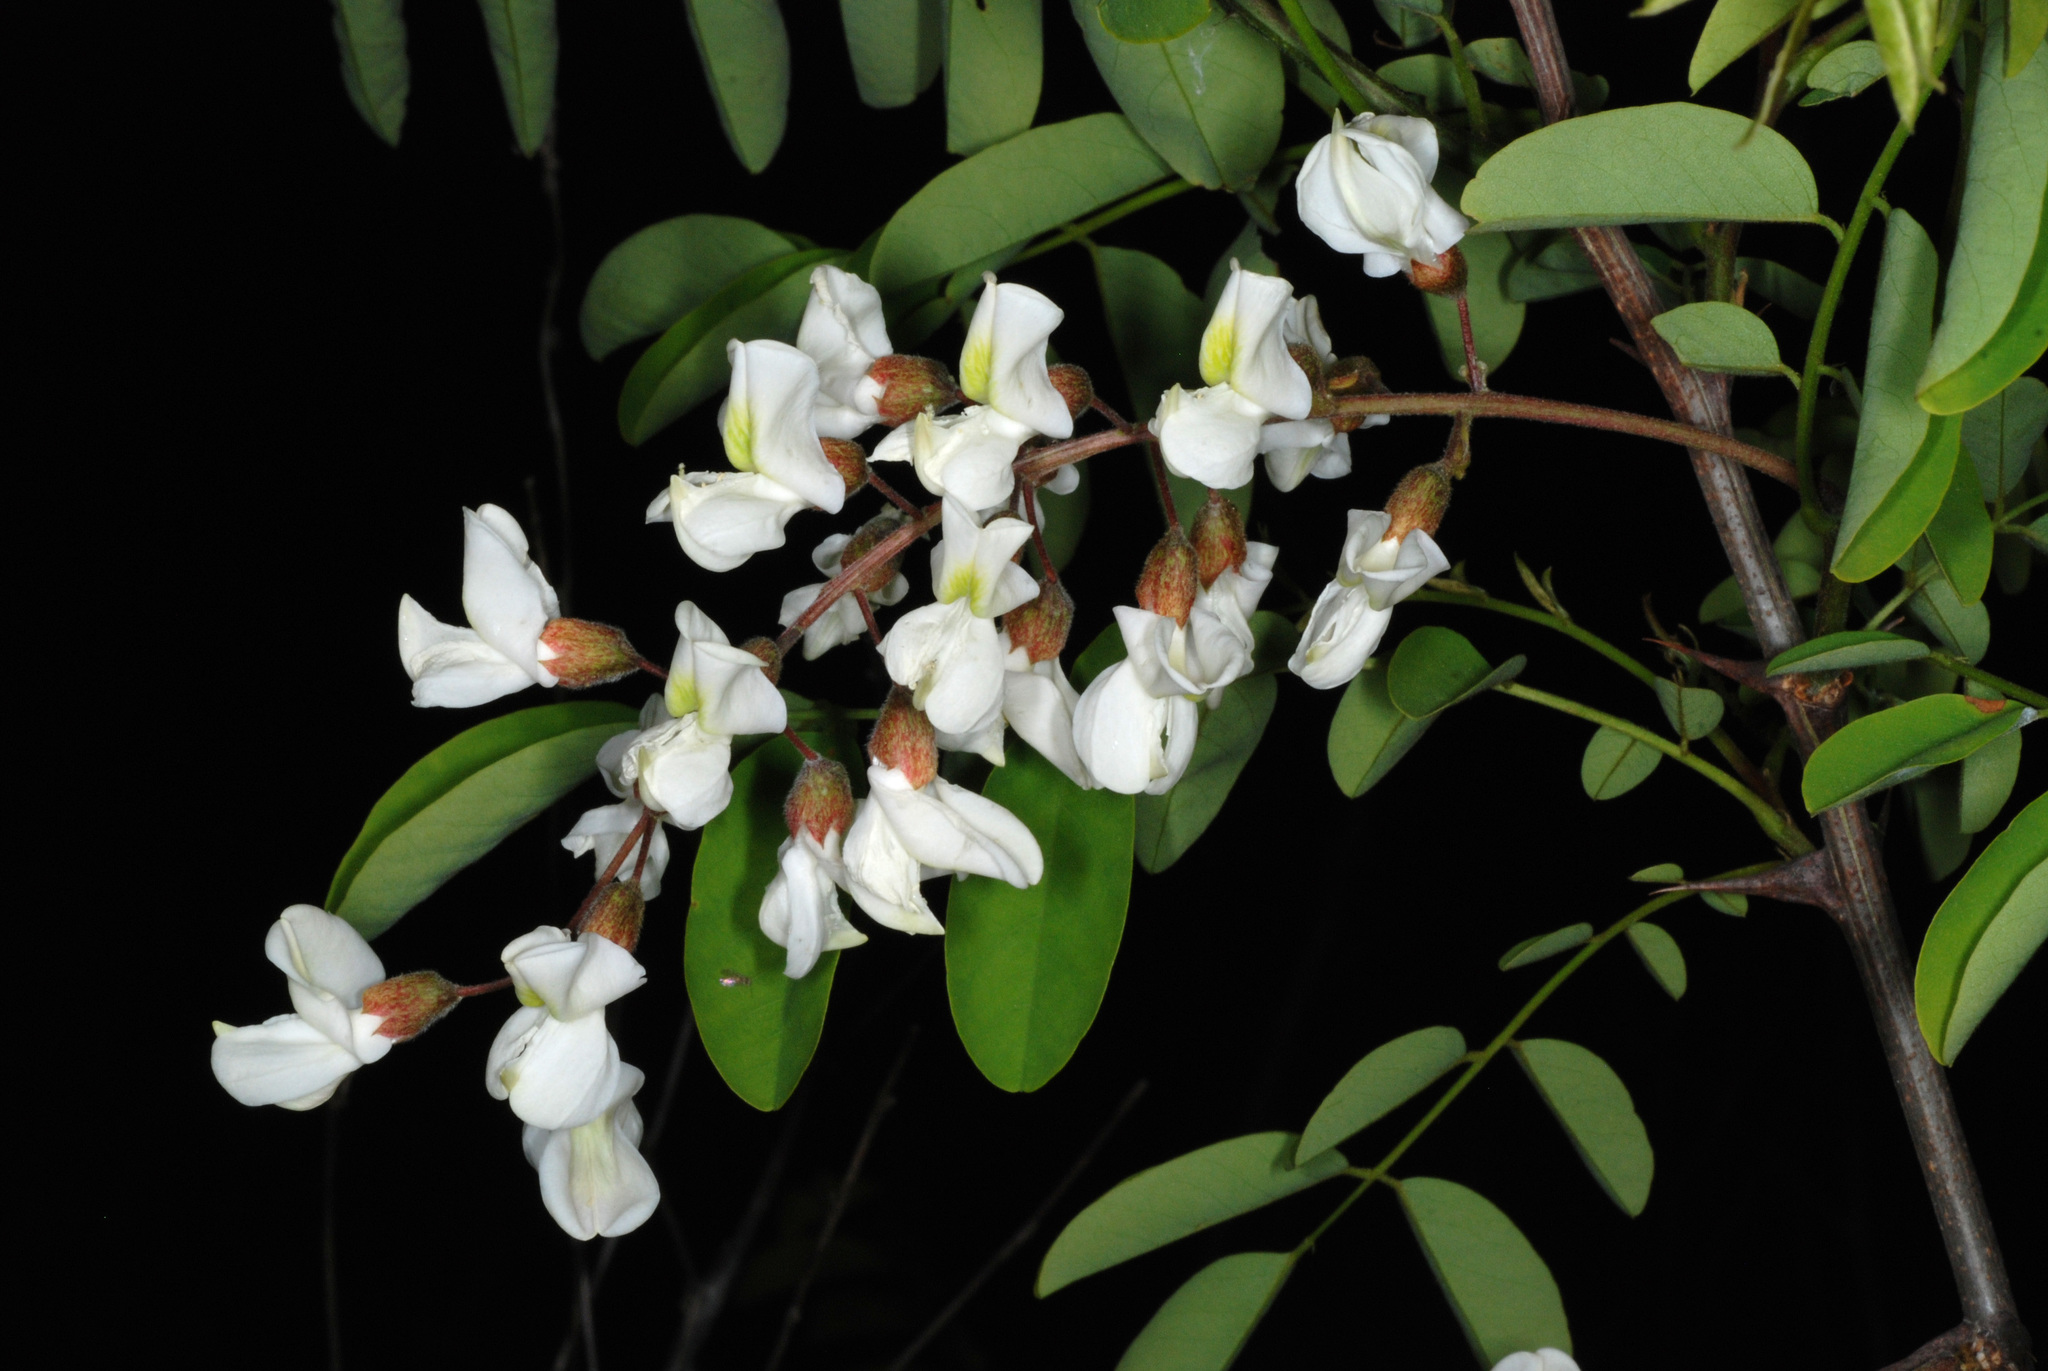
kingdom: Plantae
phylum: Tracheophyta
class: Magnoliopsida
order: Fabales
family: Fabaceae
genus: Robinia
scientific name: Robinia pseudoacacia
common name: Black locust
